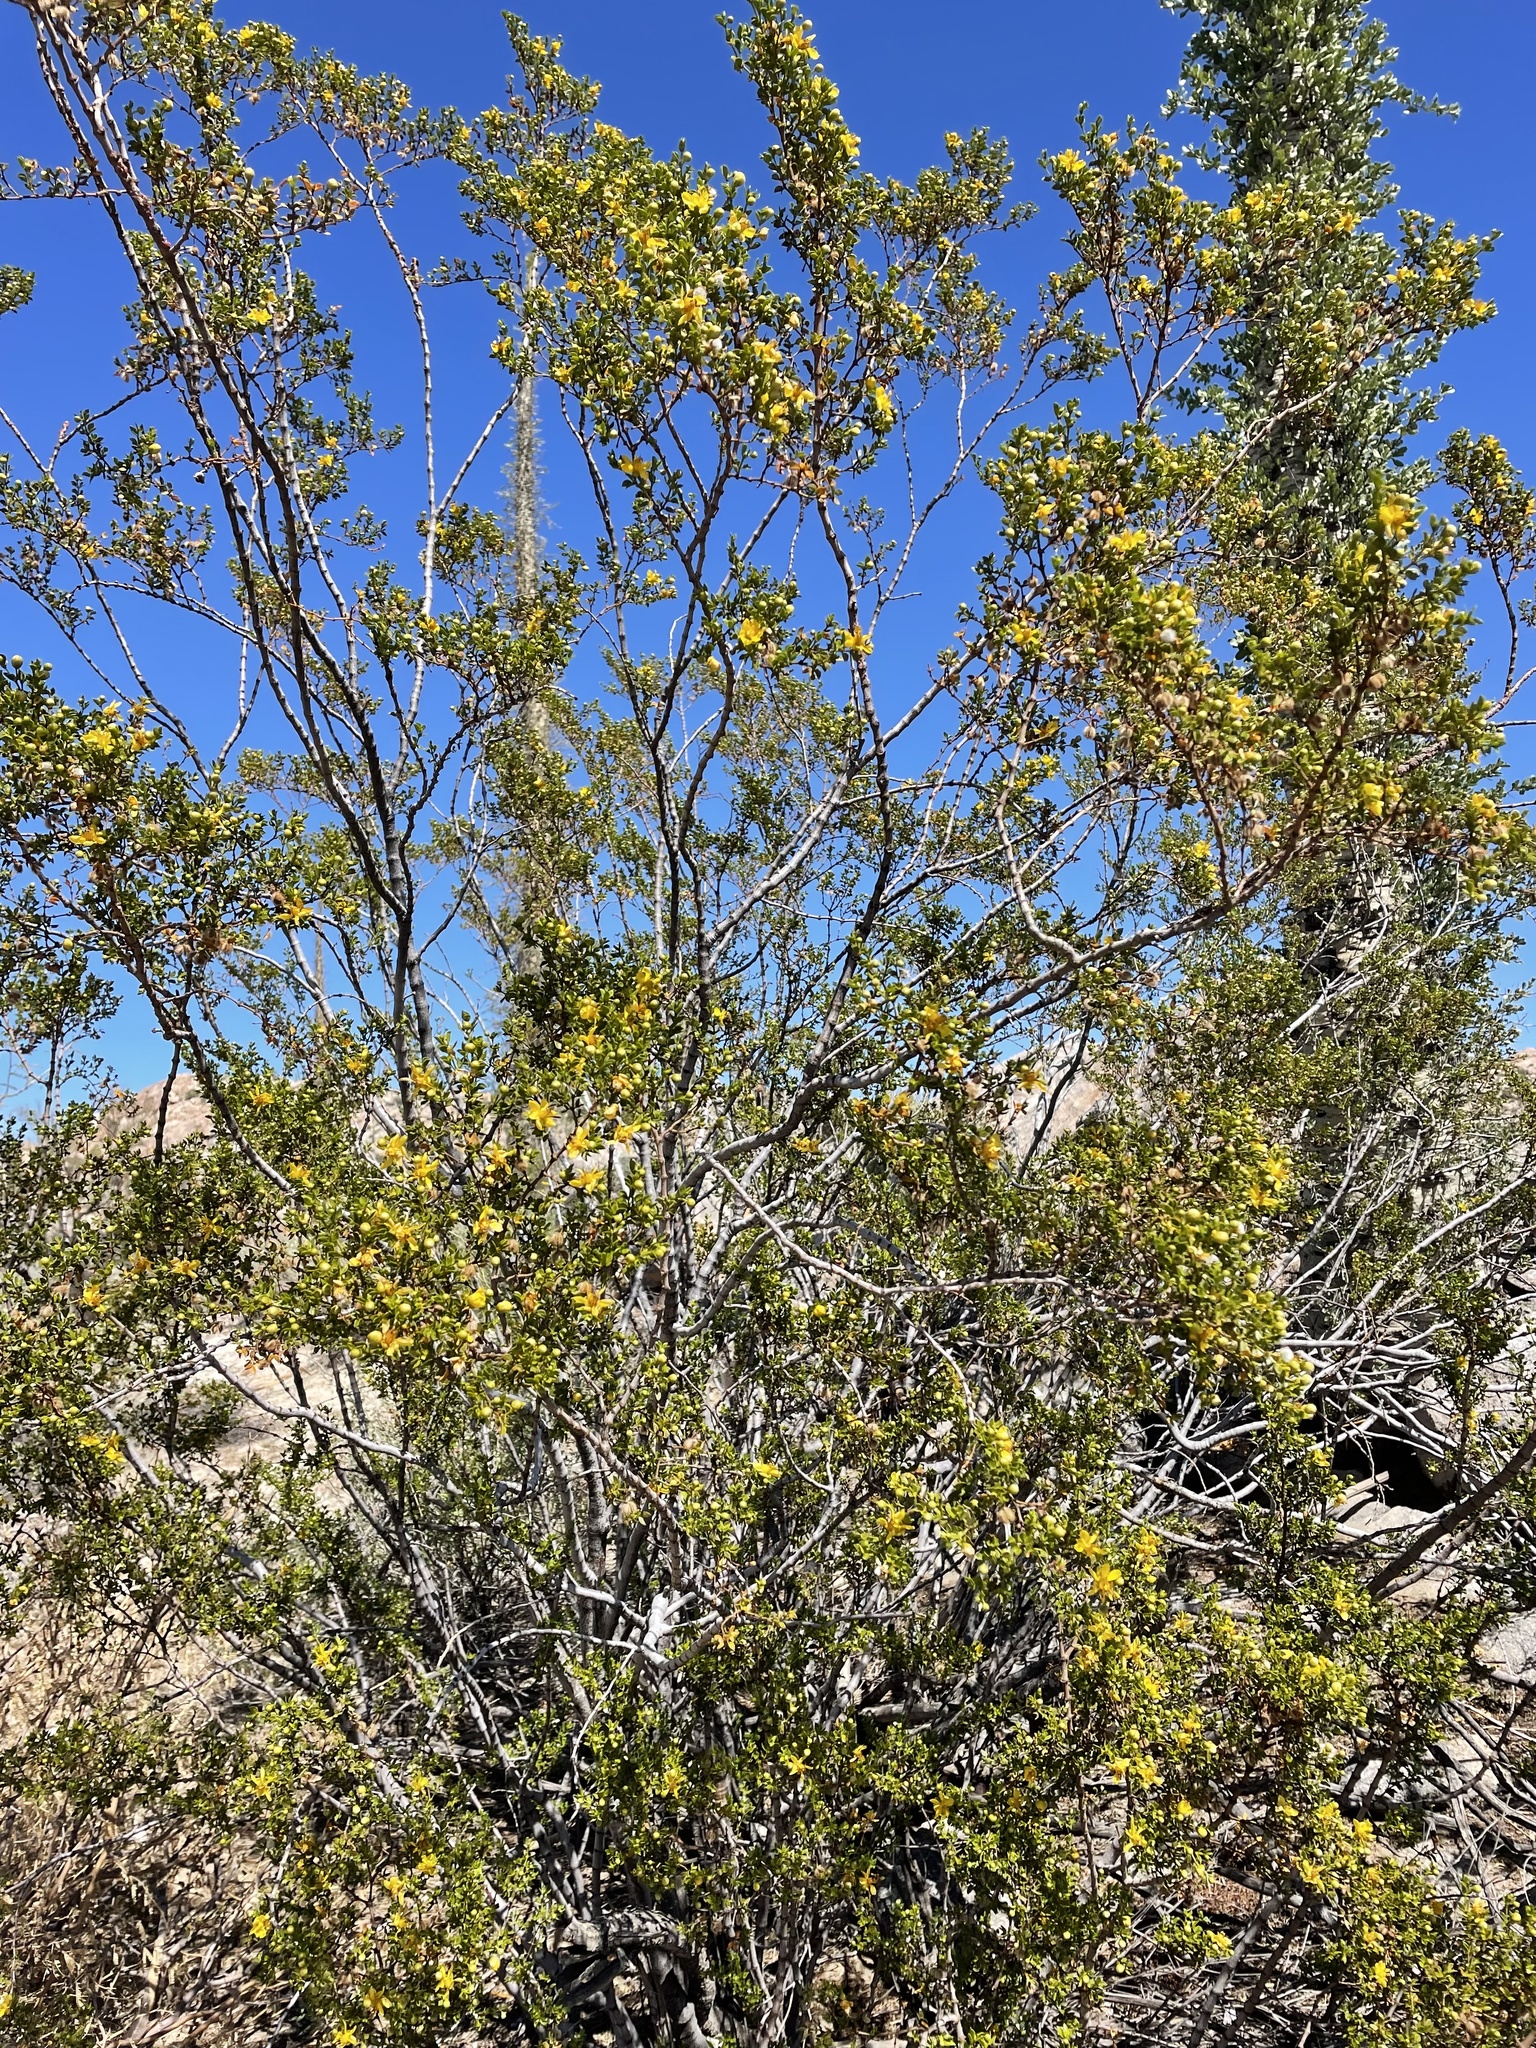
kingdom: Plantae
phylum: Tracheophyta
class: Magnoliopsida
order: Zygophyllales
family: Zygophyllaceae
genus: Larrea
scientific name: Larrea tridentata
